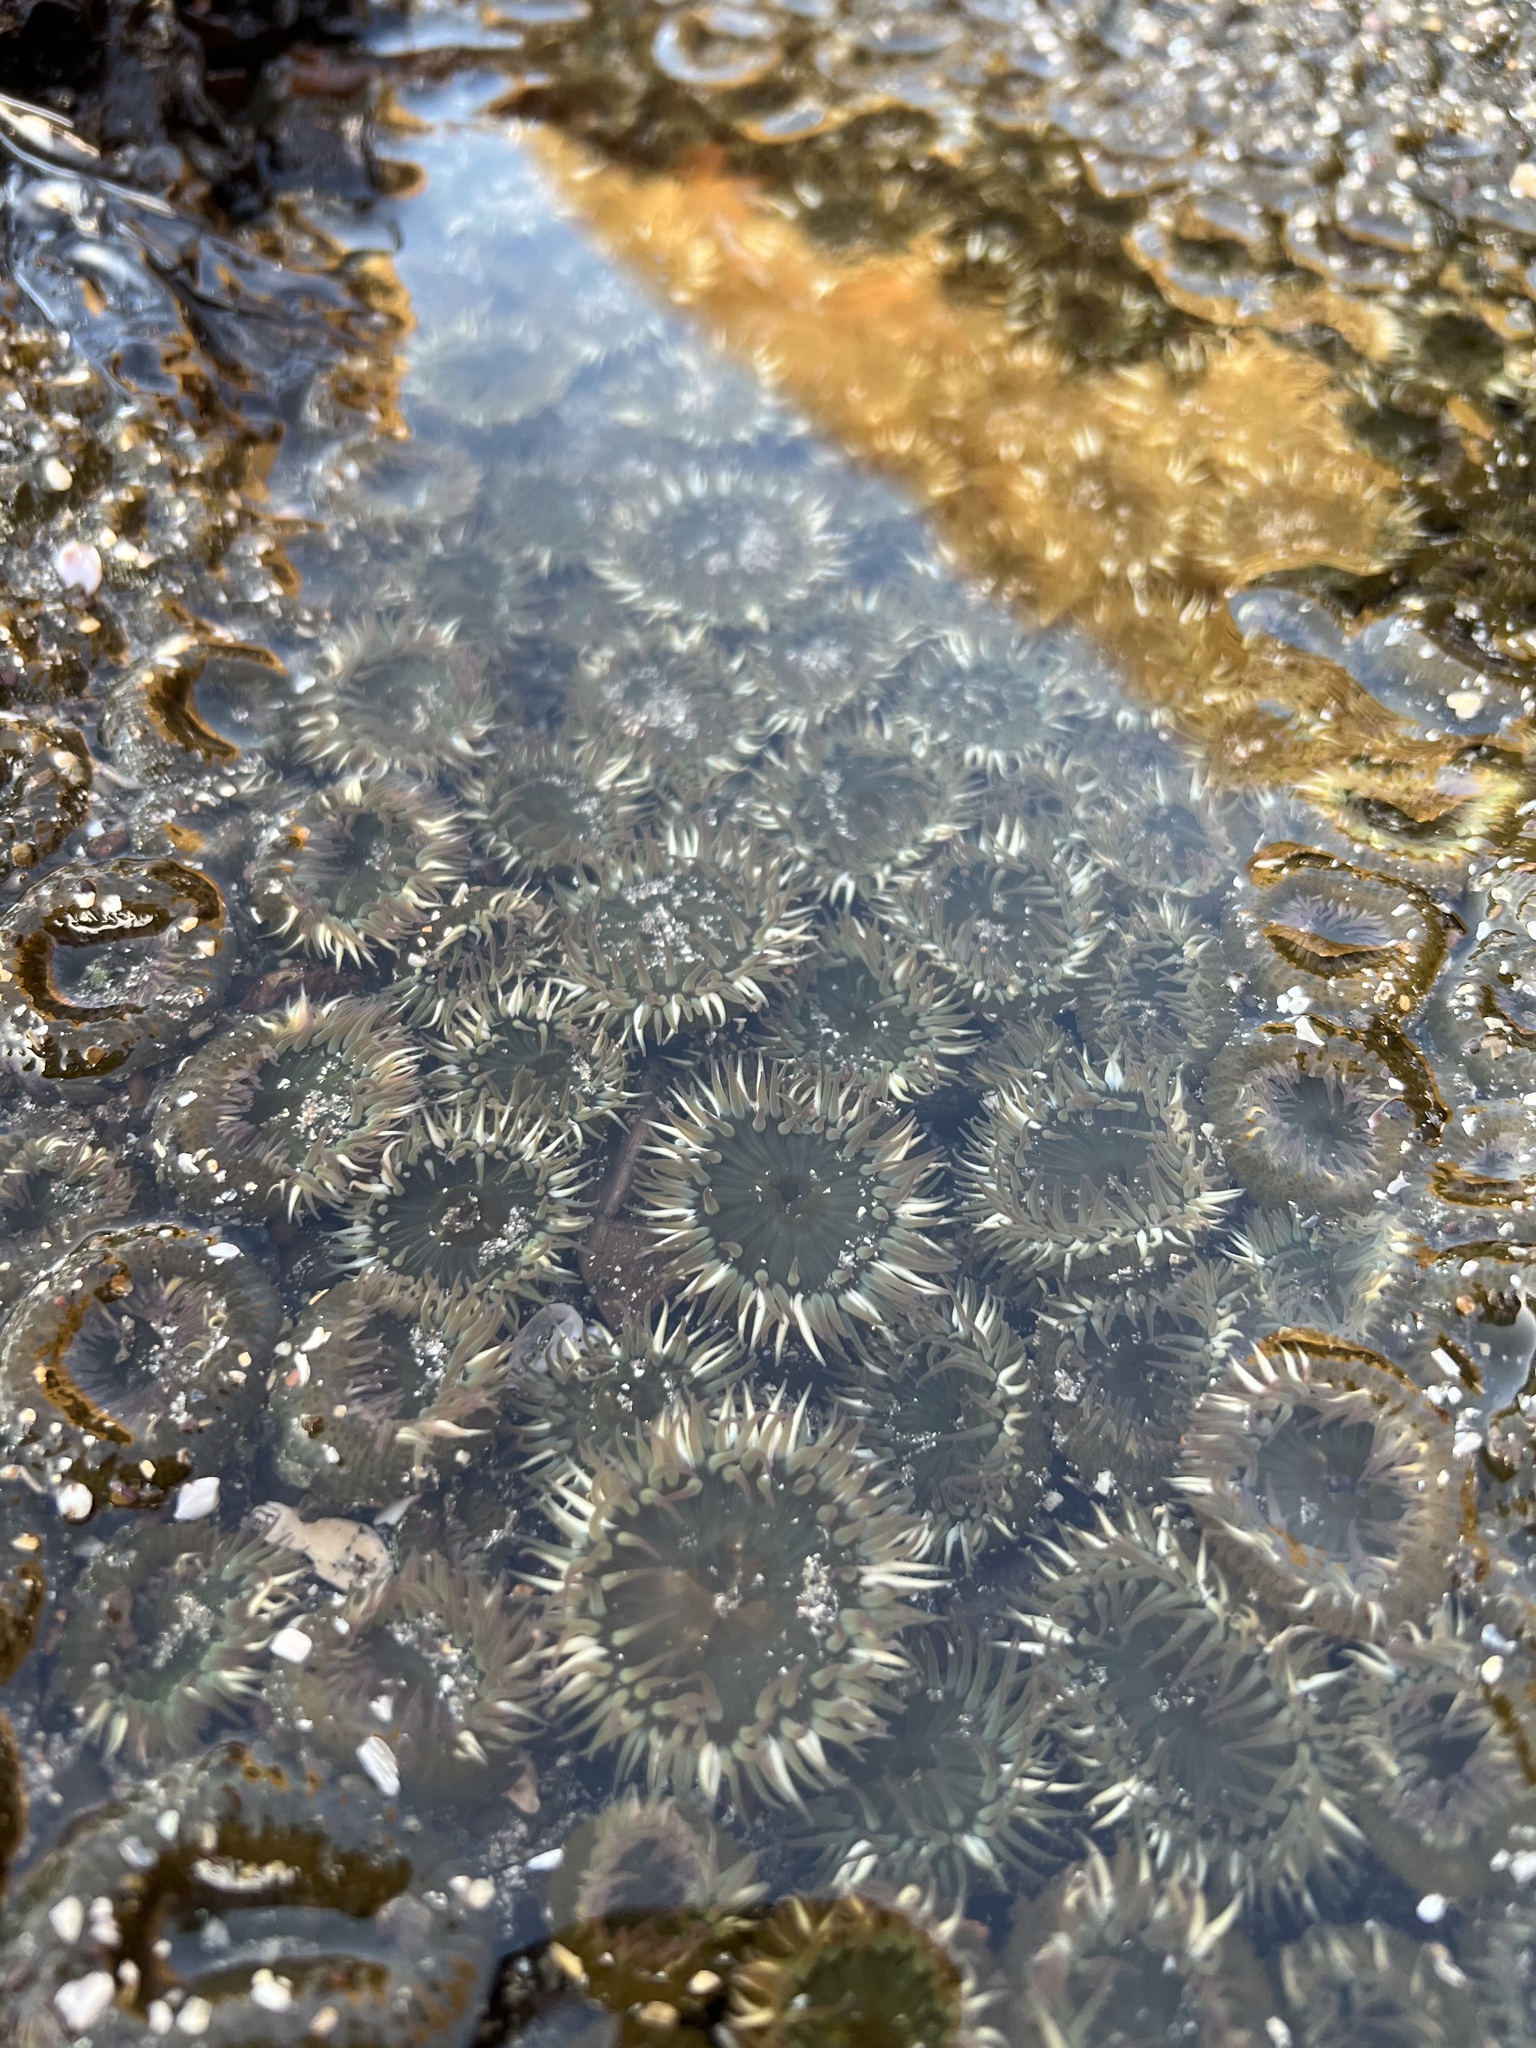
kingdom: Animalia
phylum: Cnidaria
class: Anthozoa
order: Actiniaria
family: Actiniidae
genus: Anthopleura
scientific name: Anthopleura elegantissima
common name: Clonal anemone
